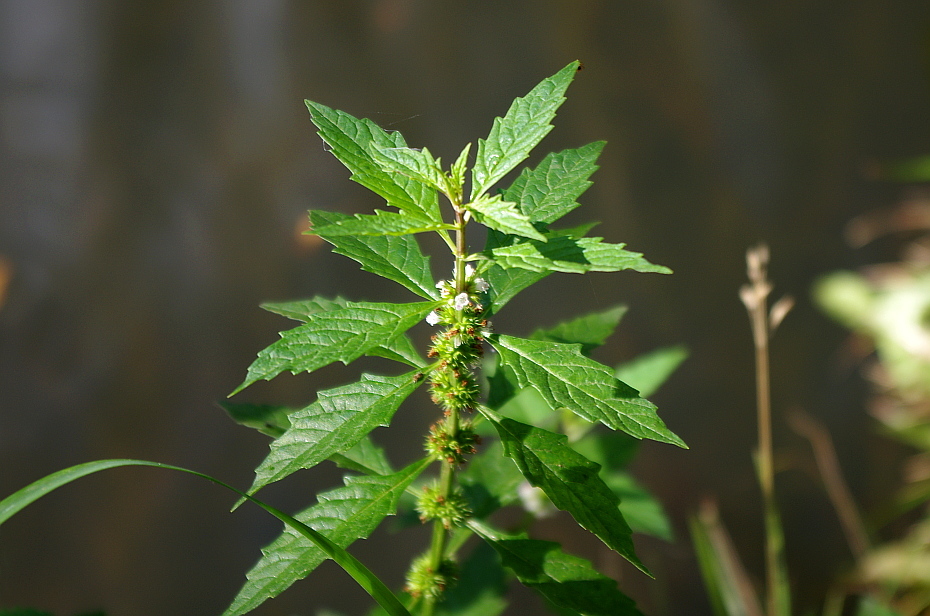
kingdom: Plantae
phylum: Tracheophyta
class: Magnoliopsida
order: Lamiales
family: Lamiaceae
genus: Lycopus
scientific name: Lycopus europaeus
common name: European bugleweed
